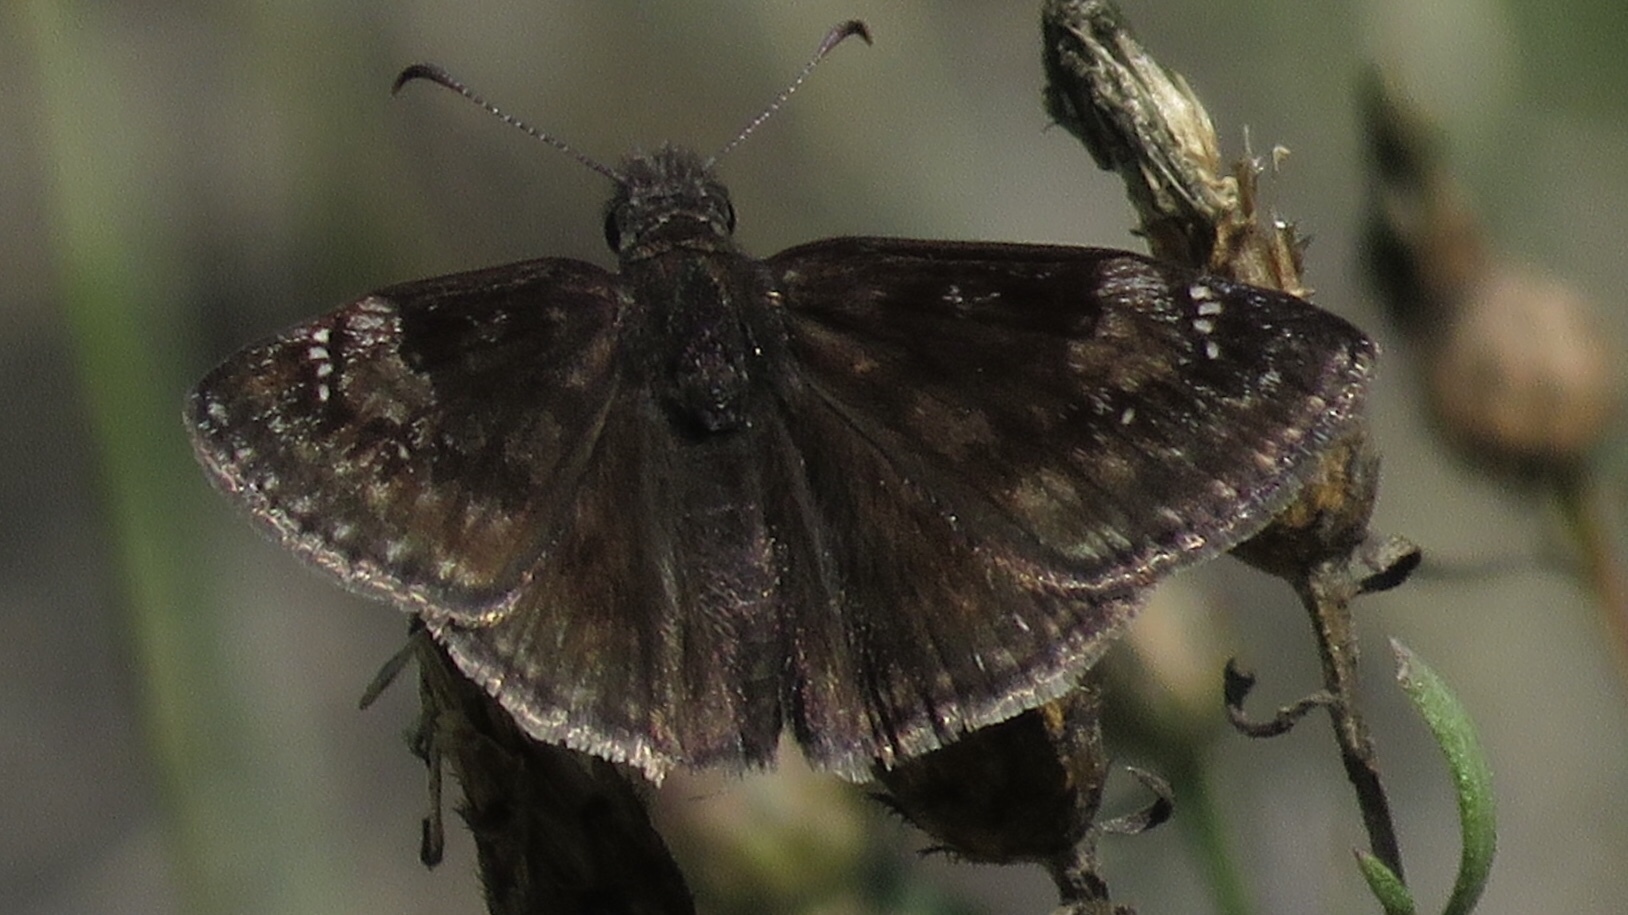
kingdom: Animalia
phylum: Arthropoda
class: Insecta
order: Lepidoptera
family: Hesperiidae
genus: Erynnis
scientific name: Erynnis baptisiae
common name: Wild indigo duskywing
